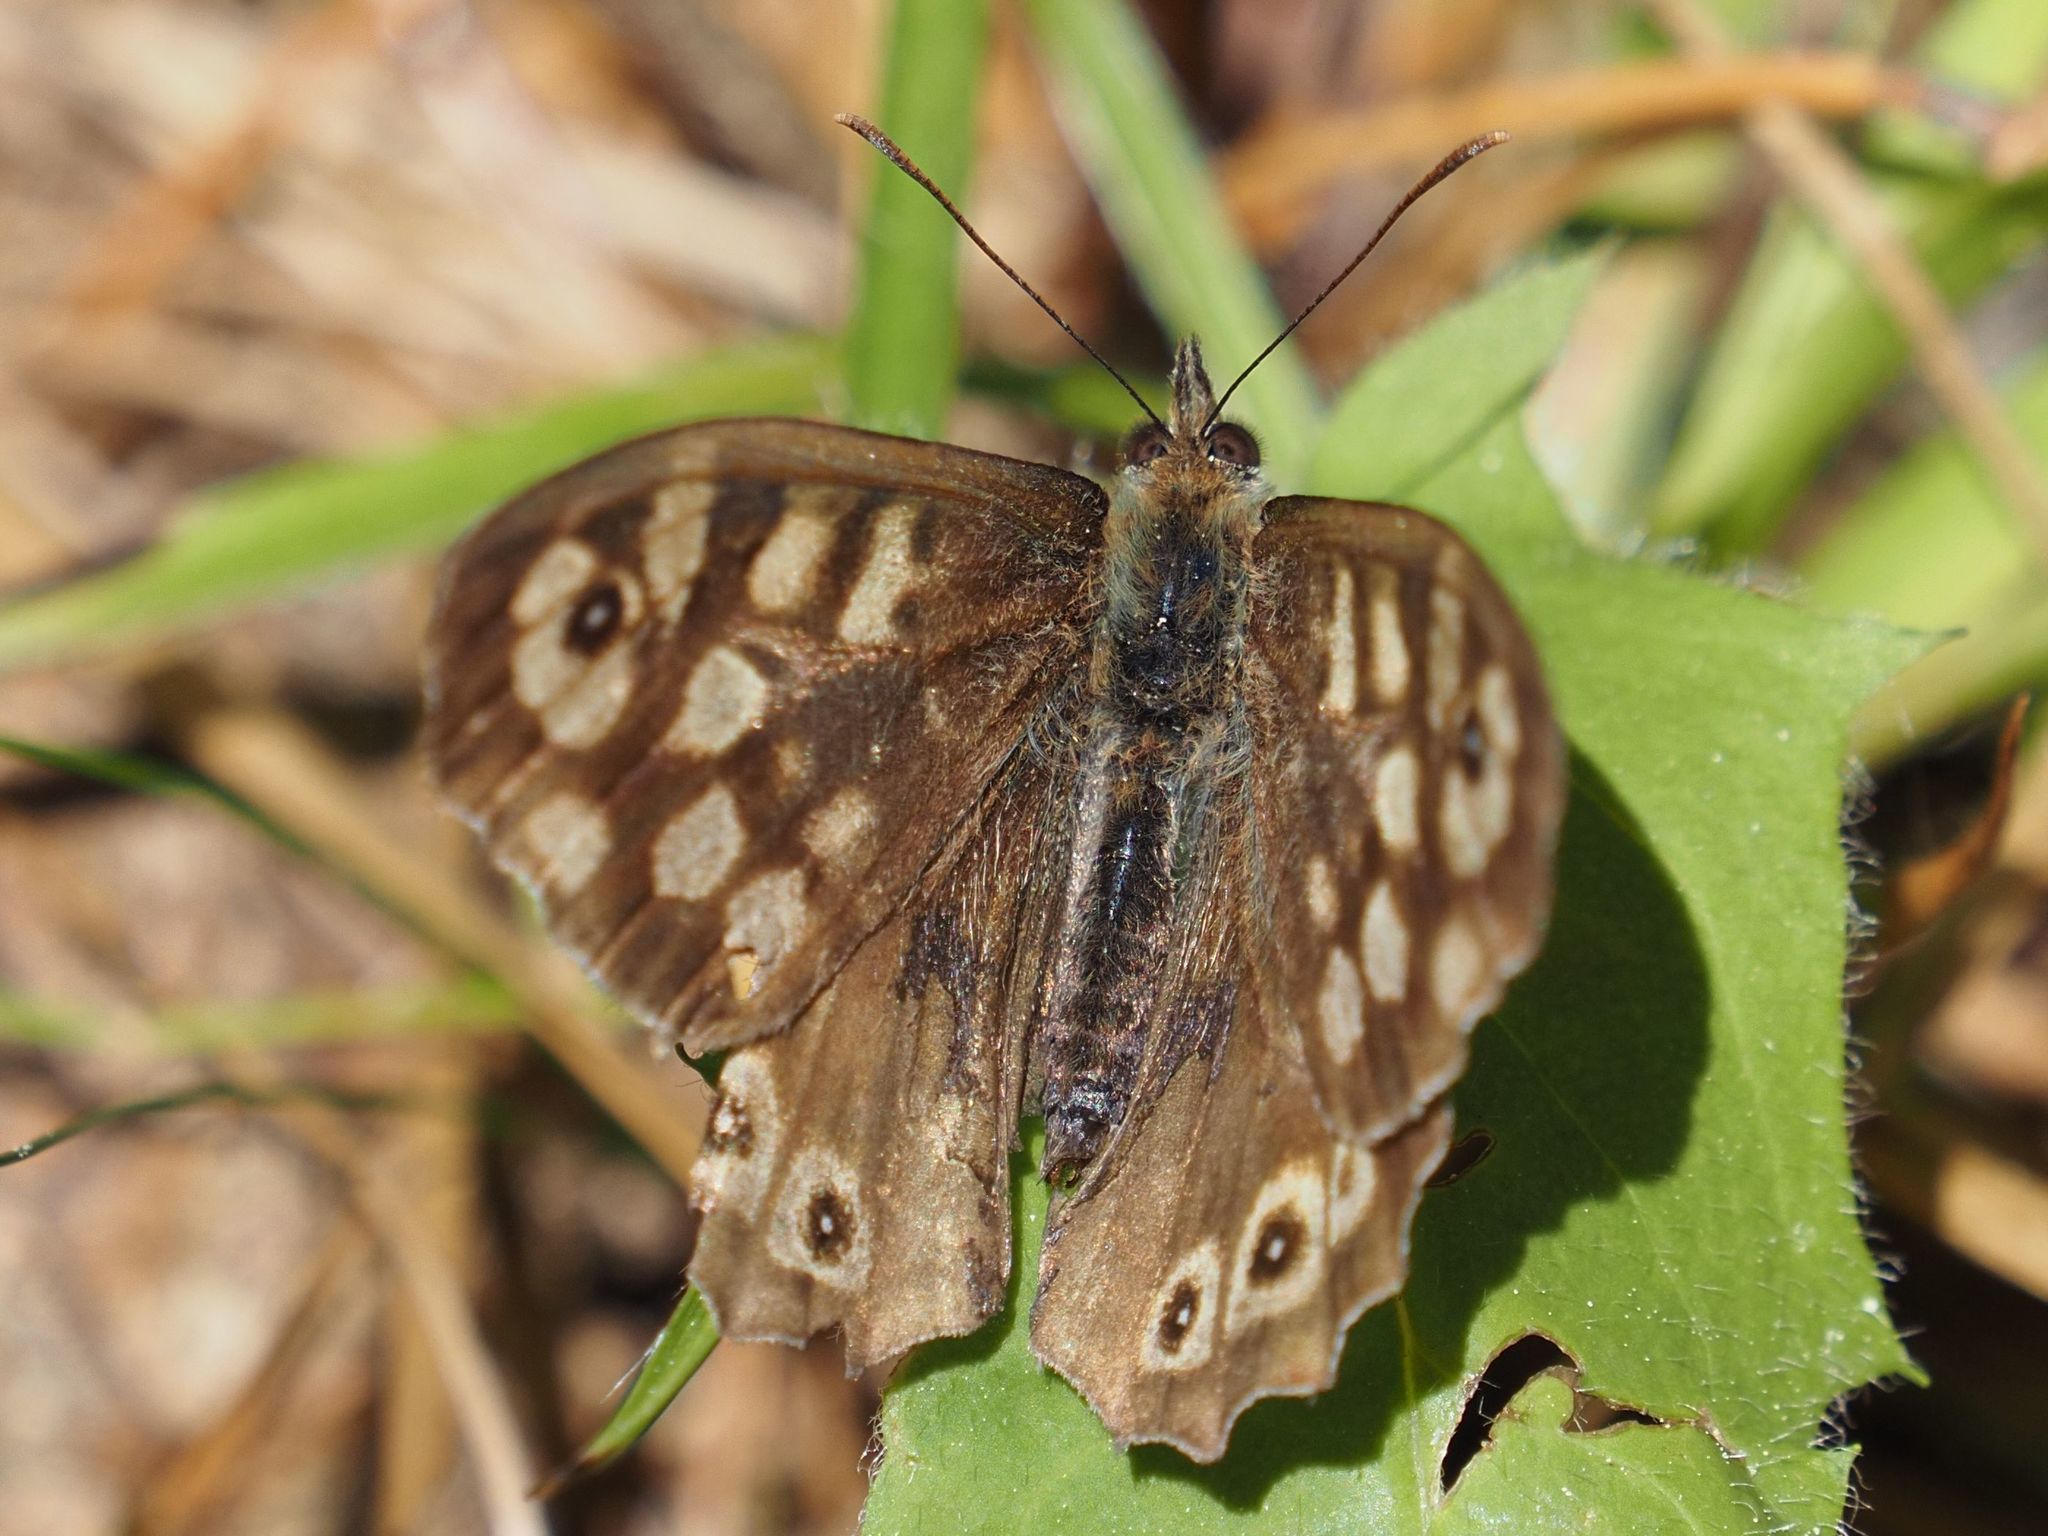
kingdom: Animalia
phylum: Arthropoda
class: Insecta
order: Lepidoptera
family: Nymphalidae
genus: Pararge
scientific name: Pararge aegeria
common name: Speckled wood
